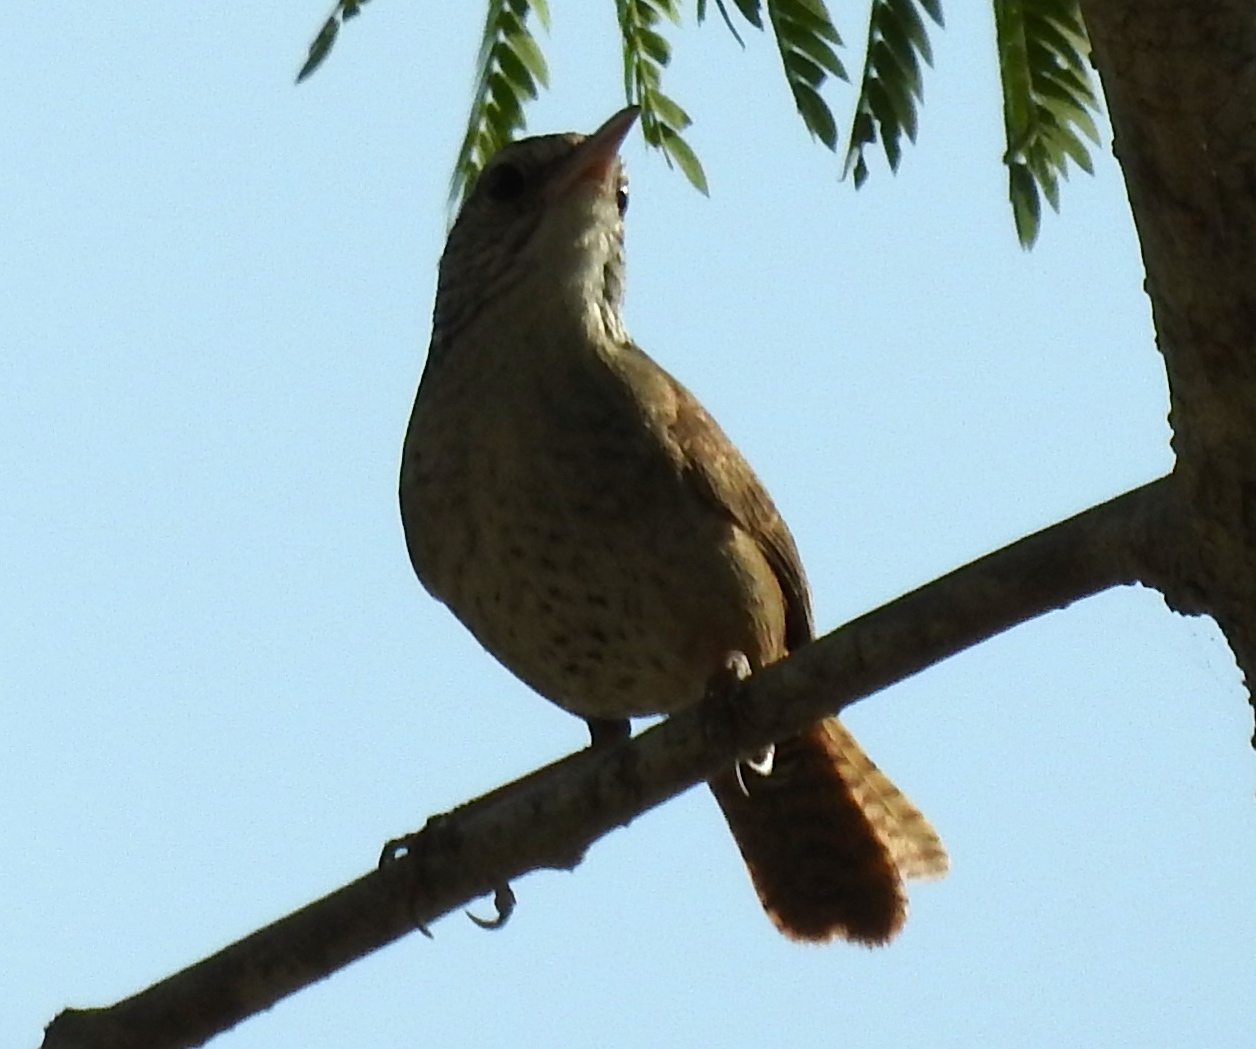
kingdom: Animalia
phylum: Chordata
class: Aves
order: Passeriformes
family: Troglodytidae
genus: Thryophilus
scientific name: Thryophilus sinaloa
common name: Sinaloa wren
